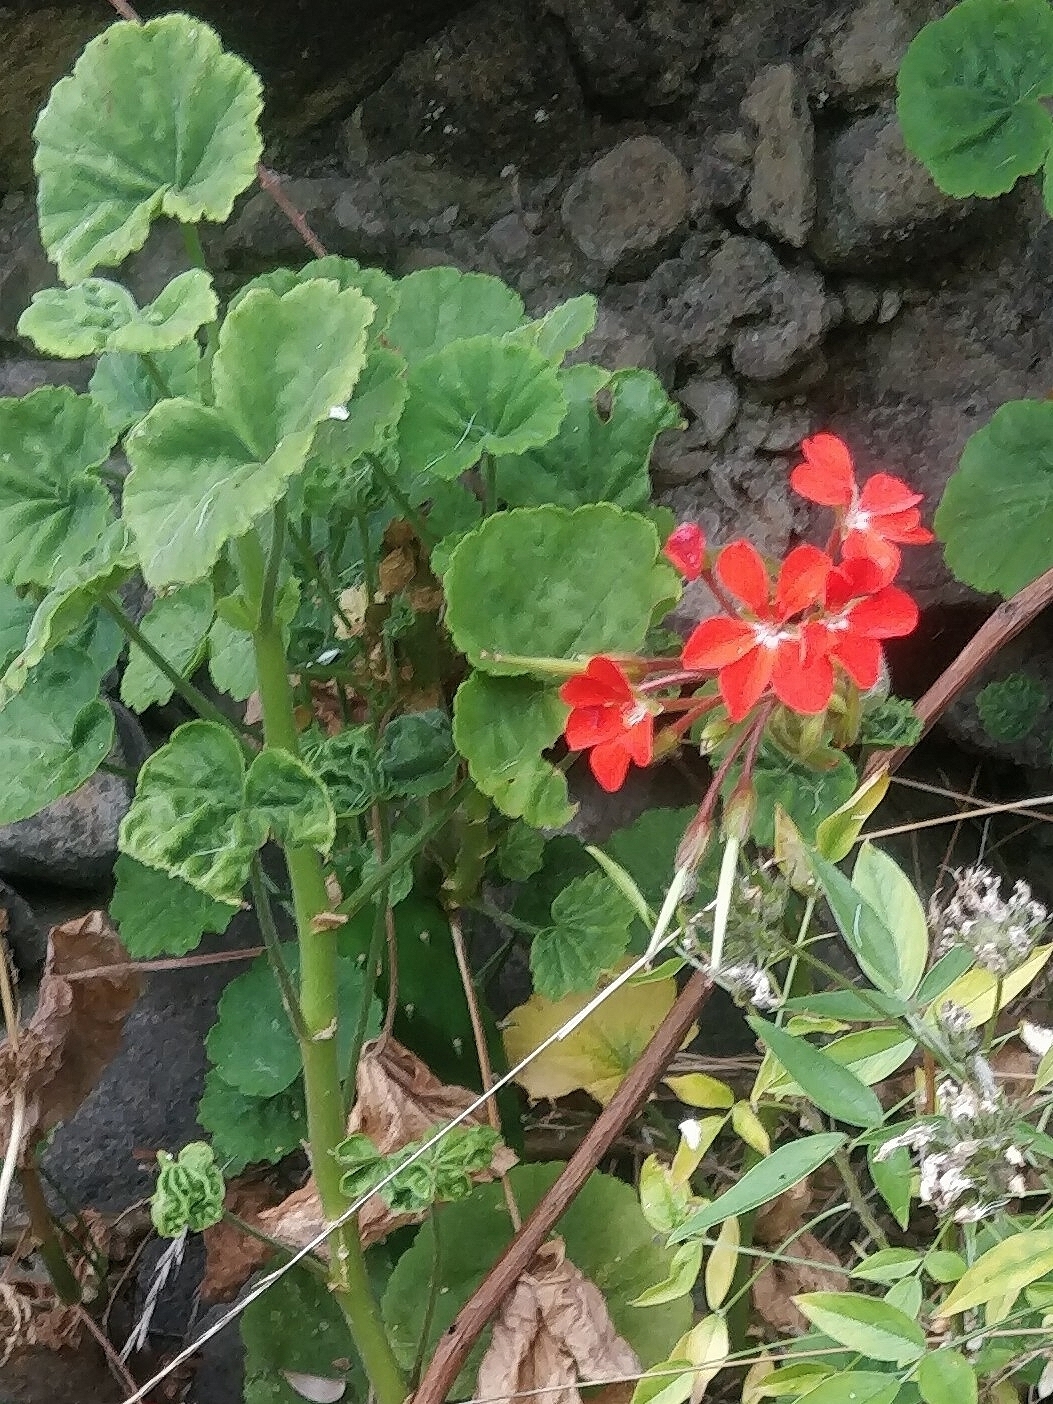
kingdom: Plantae
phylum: Tracheophyta
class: Magnoliopsida
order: Geraniales
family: Geraniaceae
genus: Pelargonium
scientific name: Pelargonium hybridum
